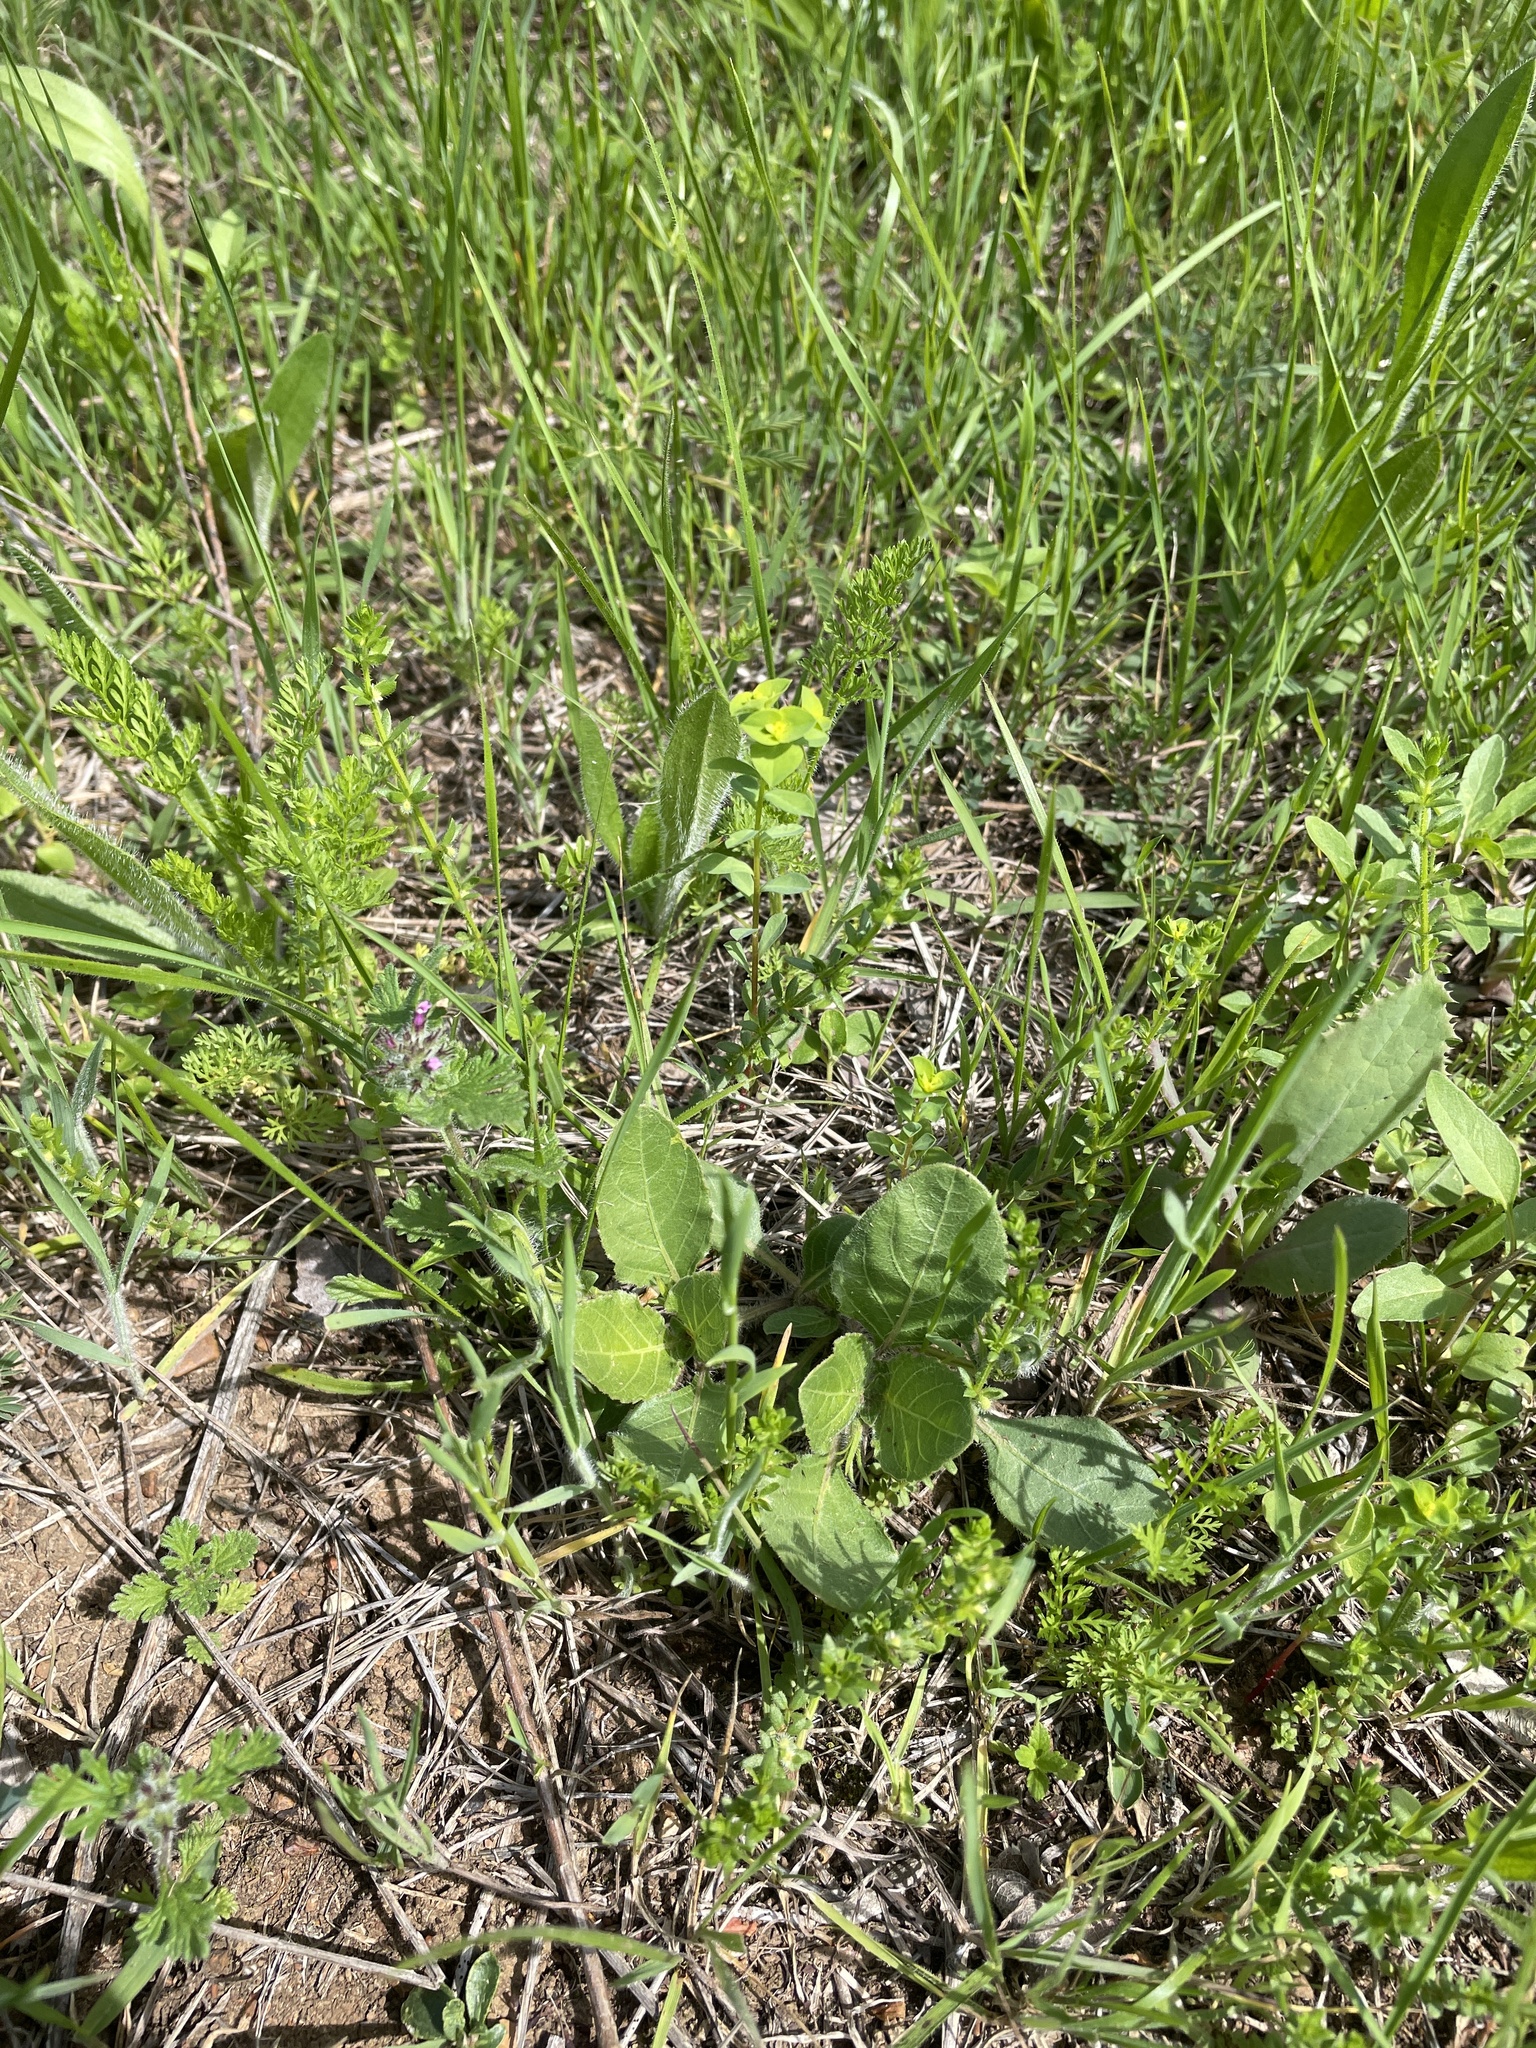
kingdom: Plantae
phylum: Tracheophyta
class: Magnoliopsida
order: Malpighiales
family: Euphorbiaceae
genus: Euphorbia
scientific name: Euphorbia spathulata
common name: Blunt spurge
